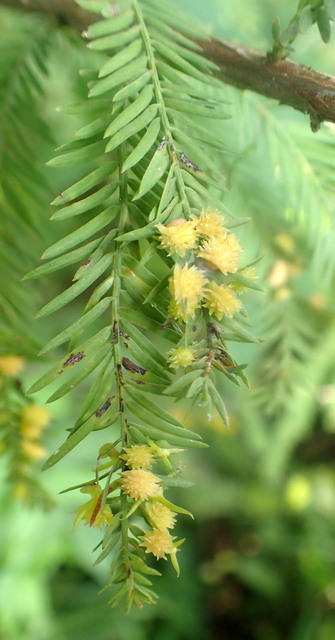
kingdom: Animalia
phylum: Arthropoda
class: Insecta
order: Diptera
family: Cecidomyiidae
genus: Taxodiomyia
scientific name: Taxodiomyia
